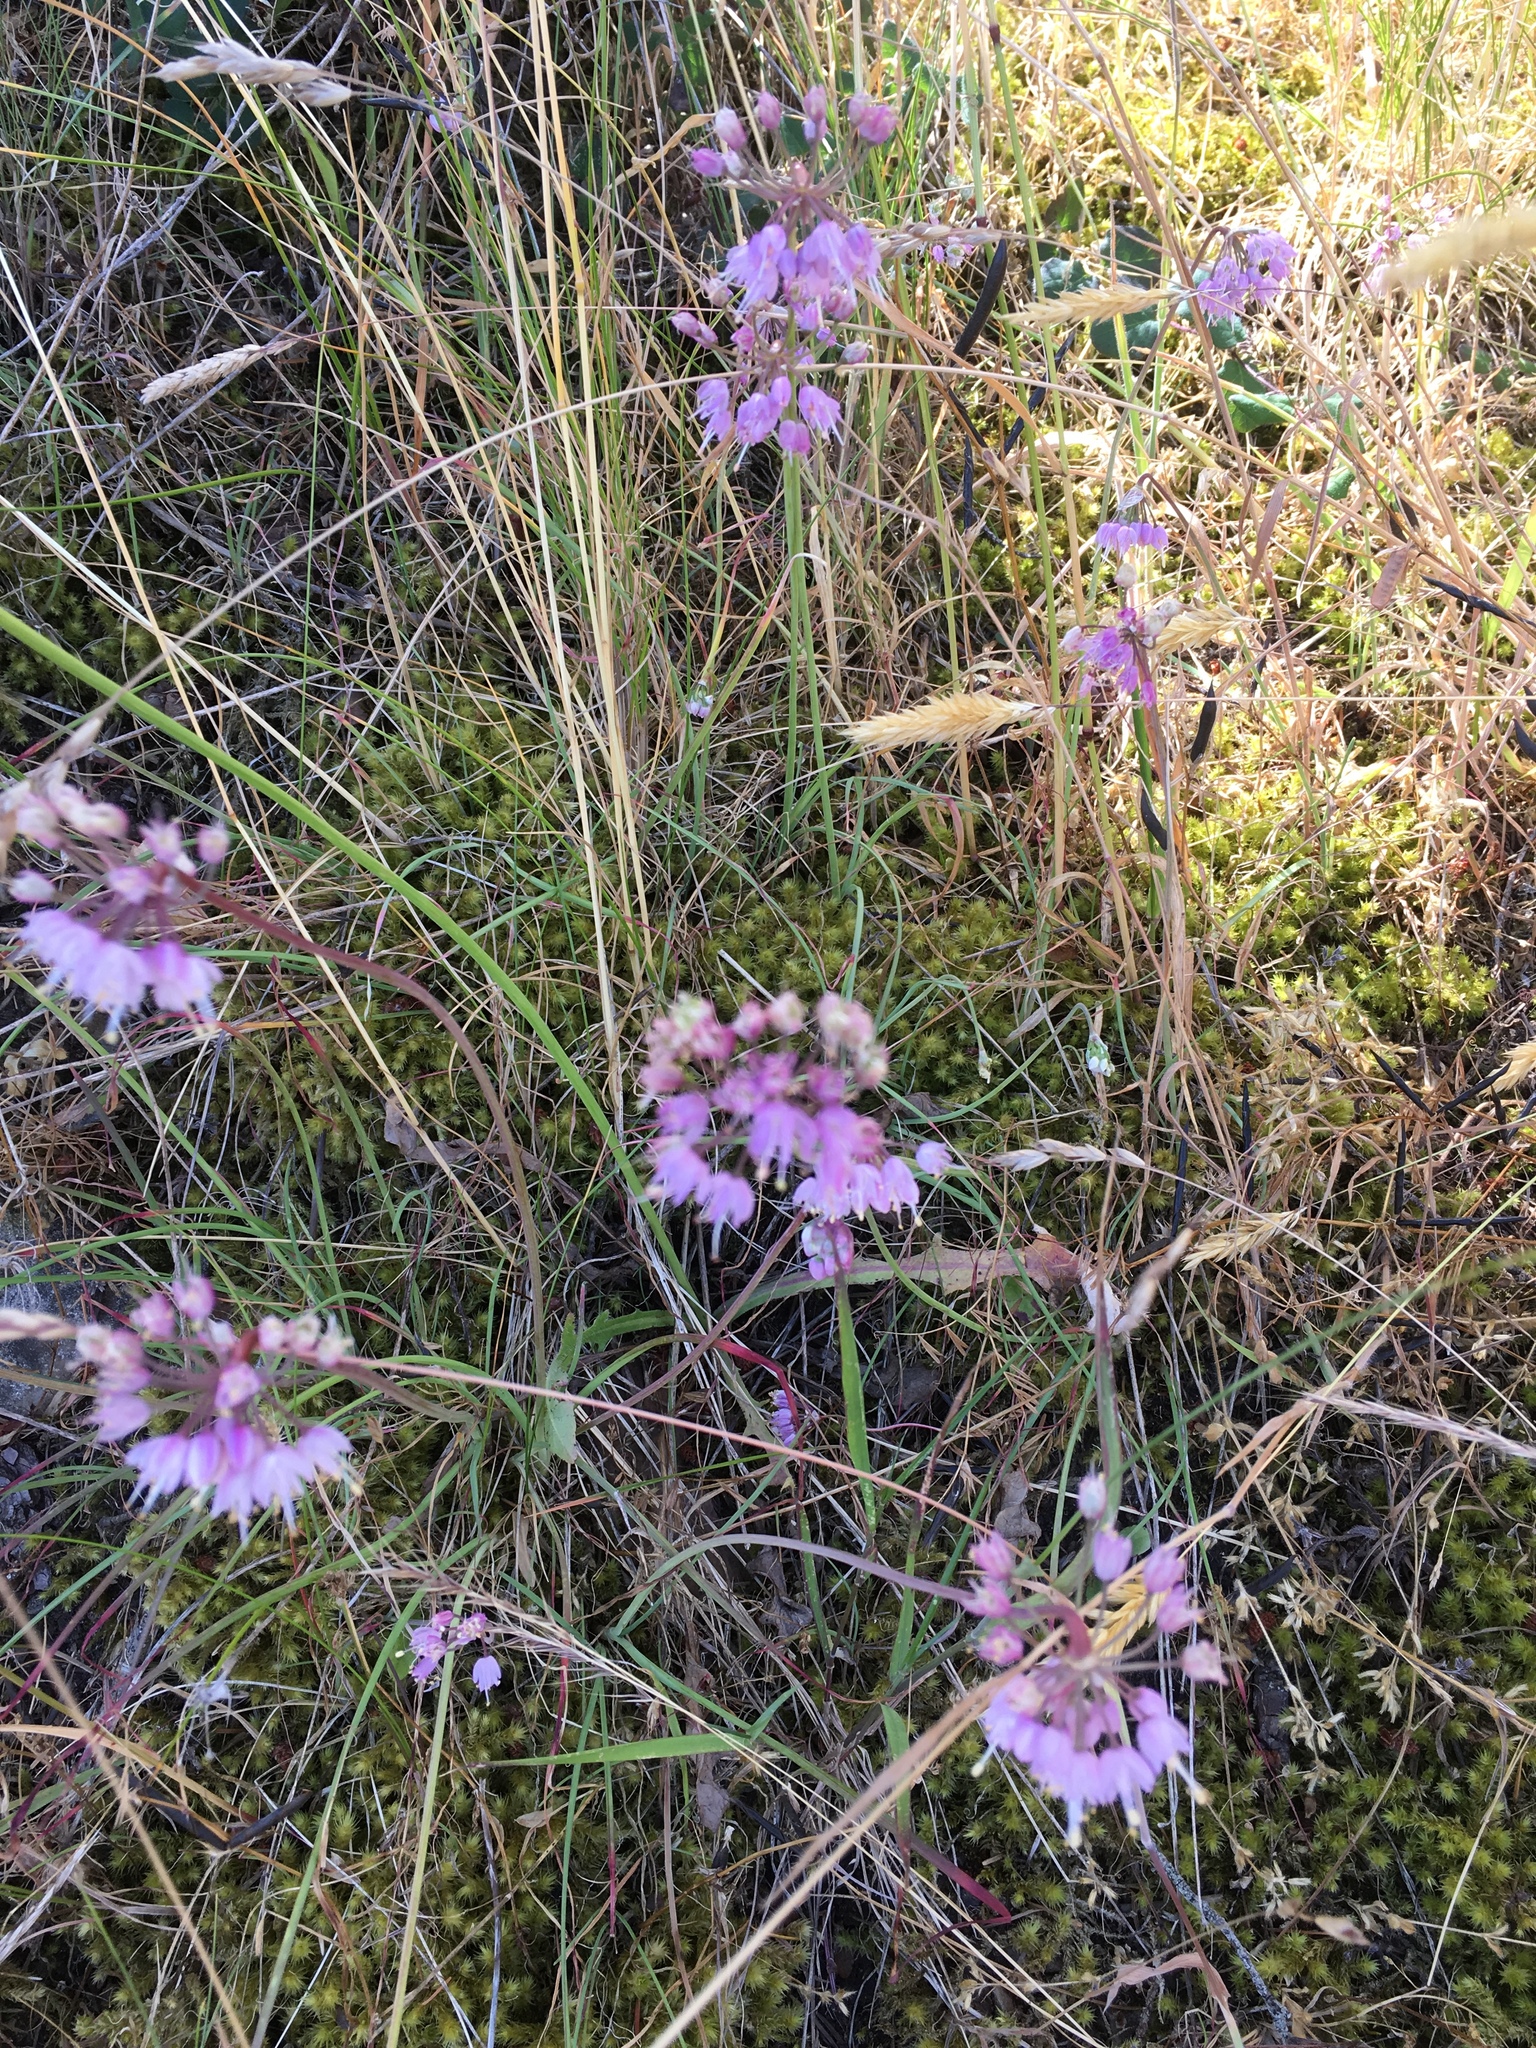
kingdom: Plantae
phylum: Tracheophyta
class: Liliopsida
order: Asparagales
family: Amaryllidaceae
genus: Allium
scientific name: Allium cernuum
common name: Nodding onion
